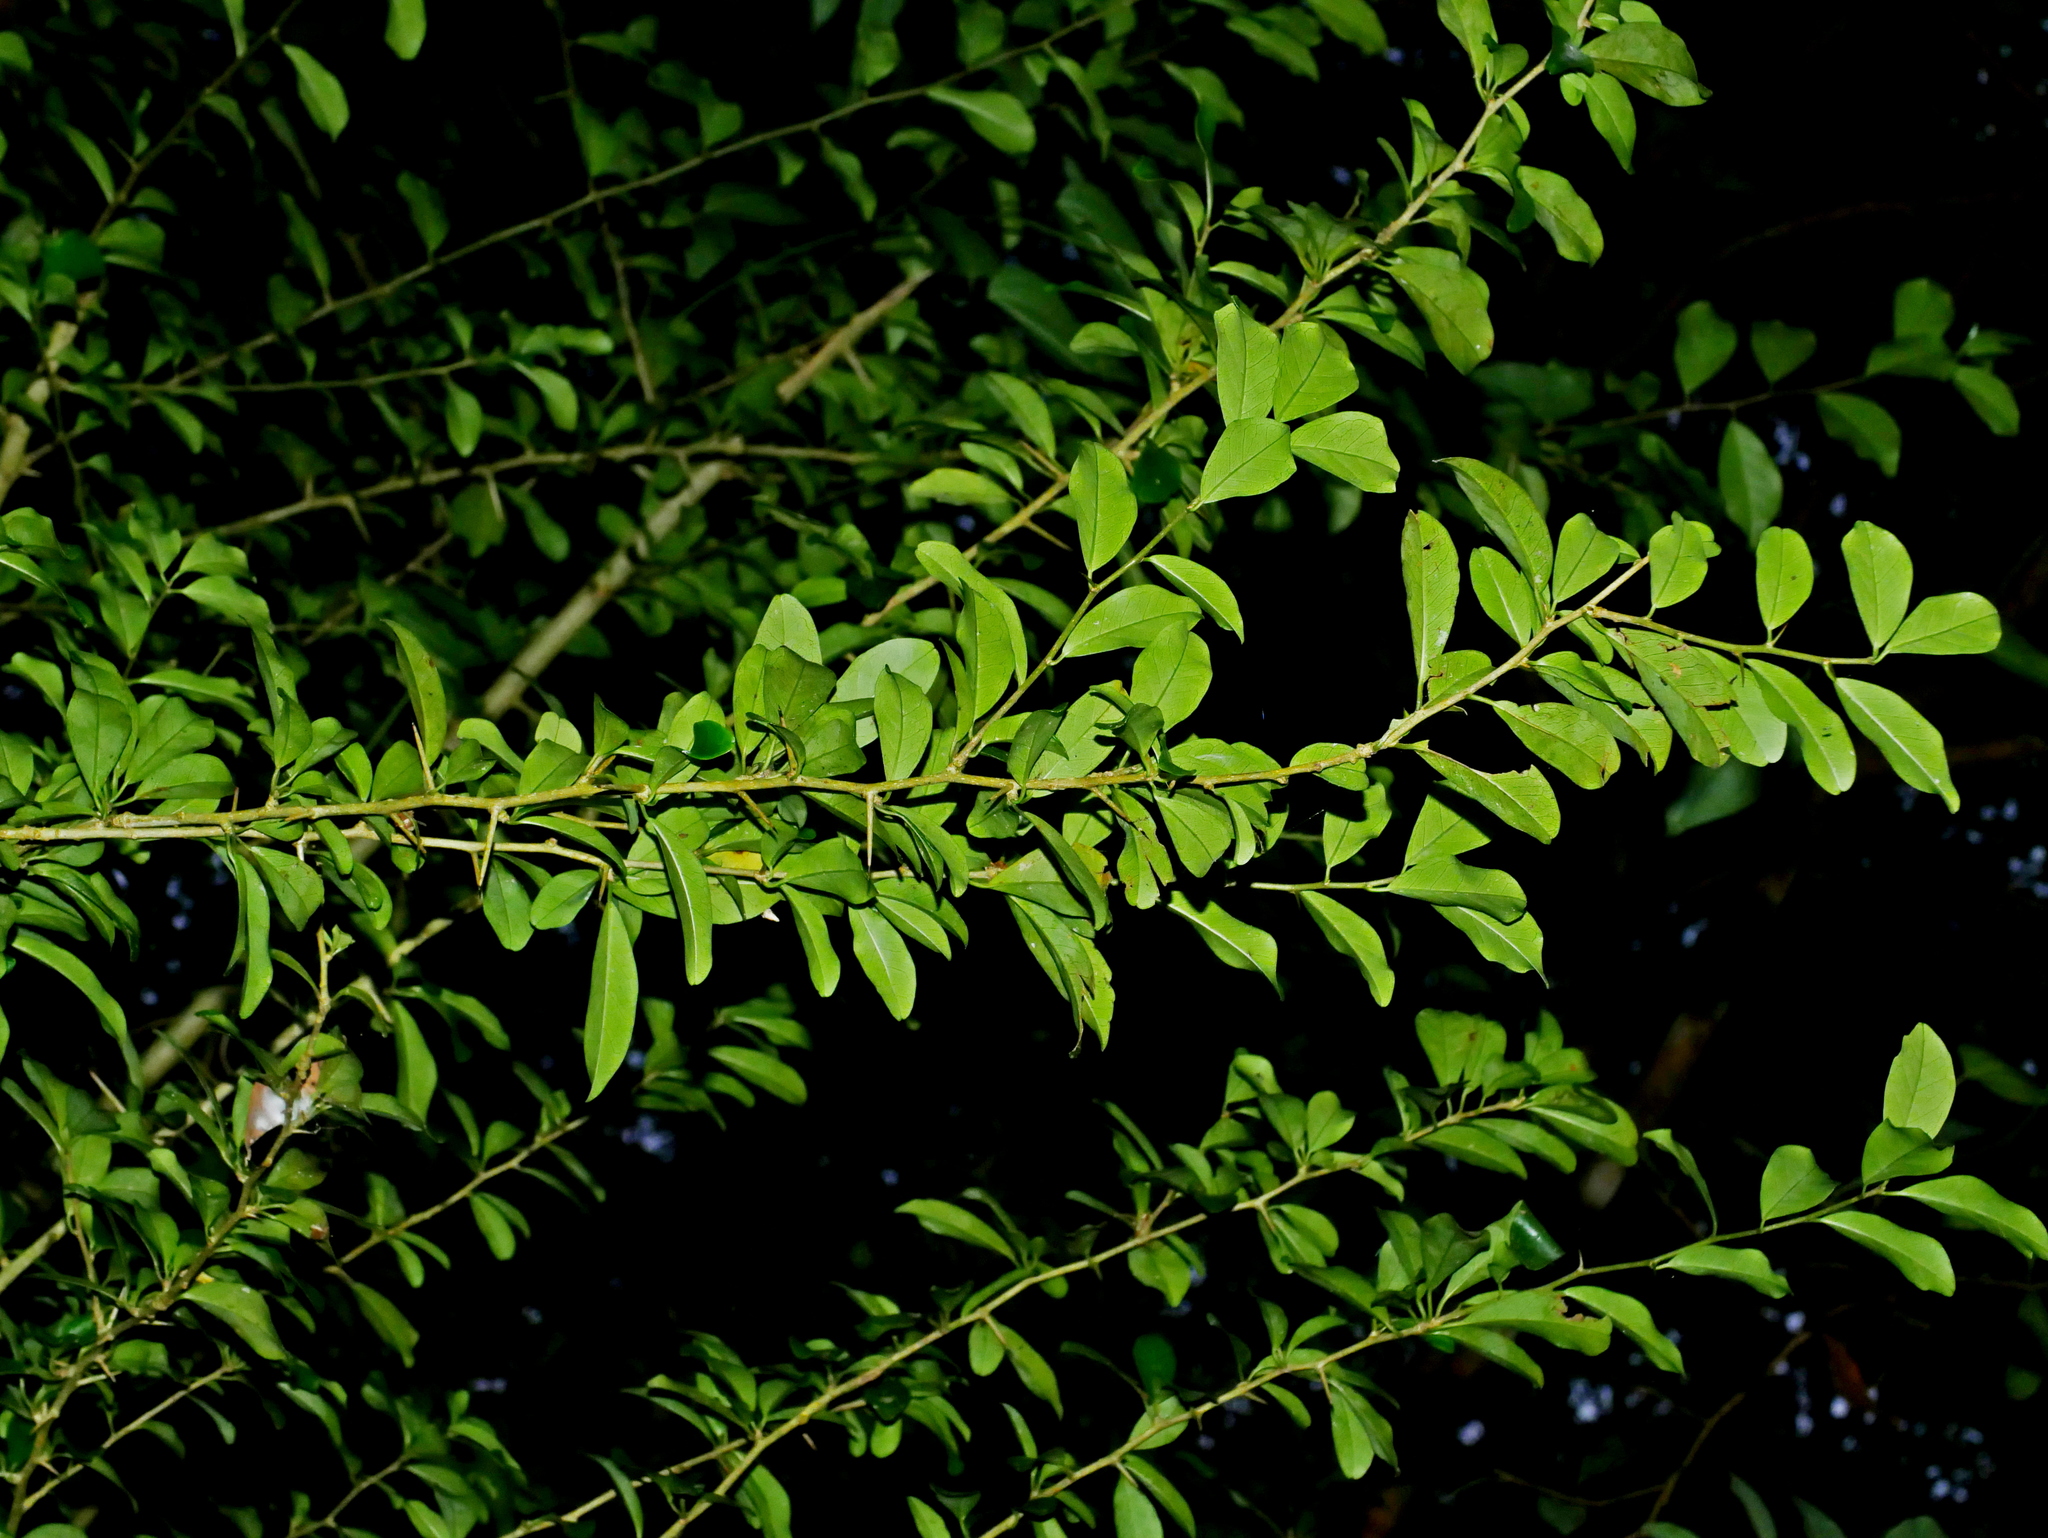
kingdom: Plantae
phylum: Tracheophyta
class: Magnoliopsida
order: Rosales
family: Moraceae
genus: Maclura
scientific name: Maclura cochinchinensis
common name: Cockspurthorn
